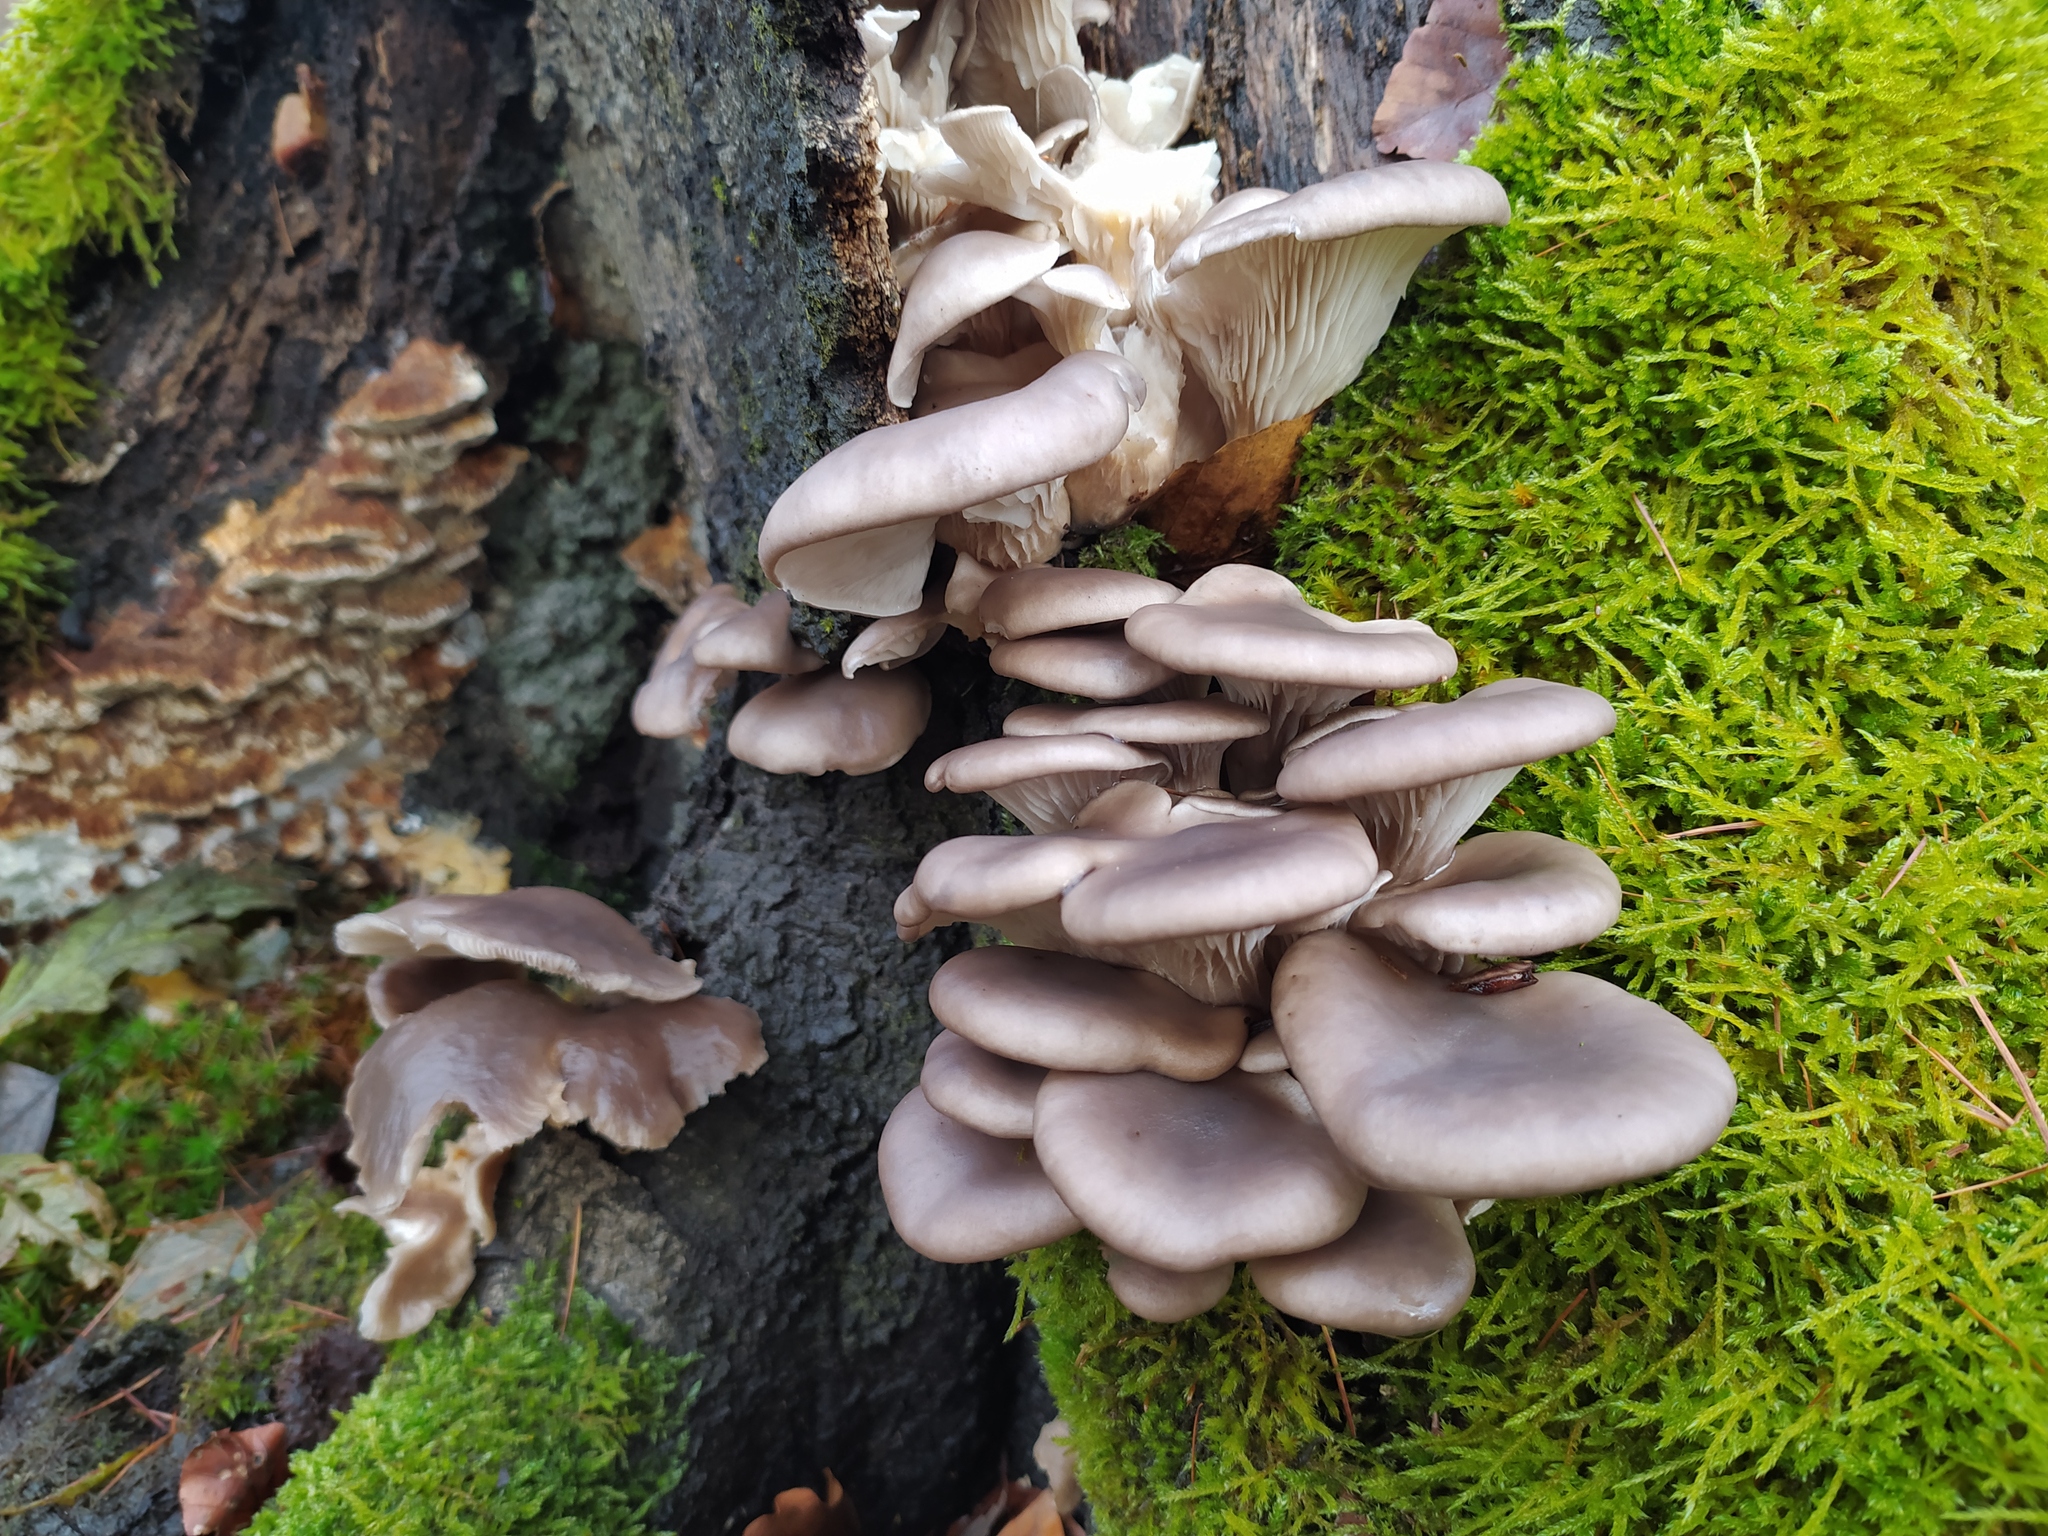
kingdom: Fungi
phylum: Basidiomycota
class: Agaricomycetes
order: Agaricales
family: Pleurotaceae
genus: Pleurotus
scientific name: Pleurotus ostreatus
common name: Oyster mushroom
